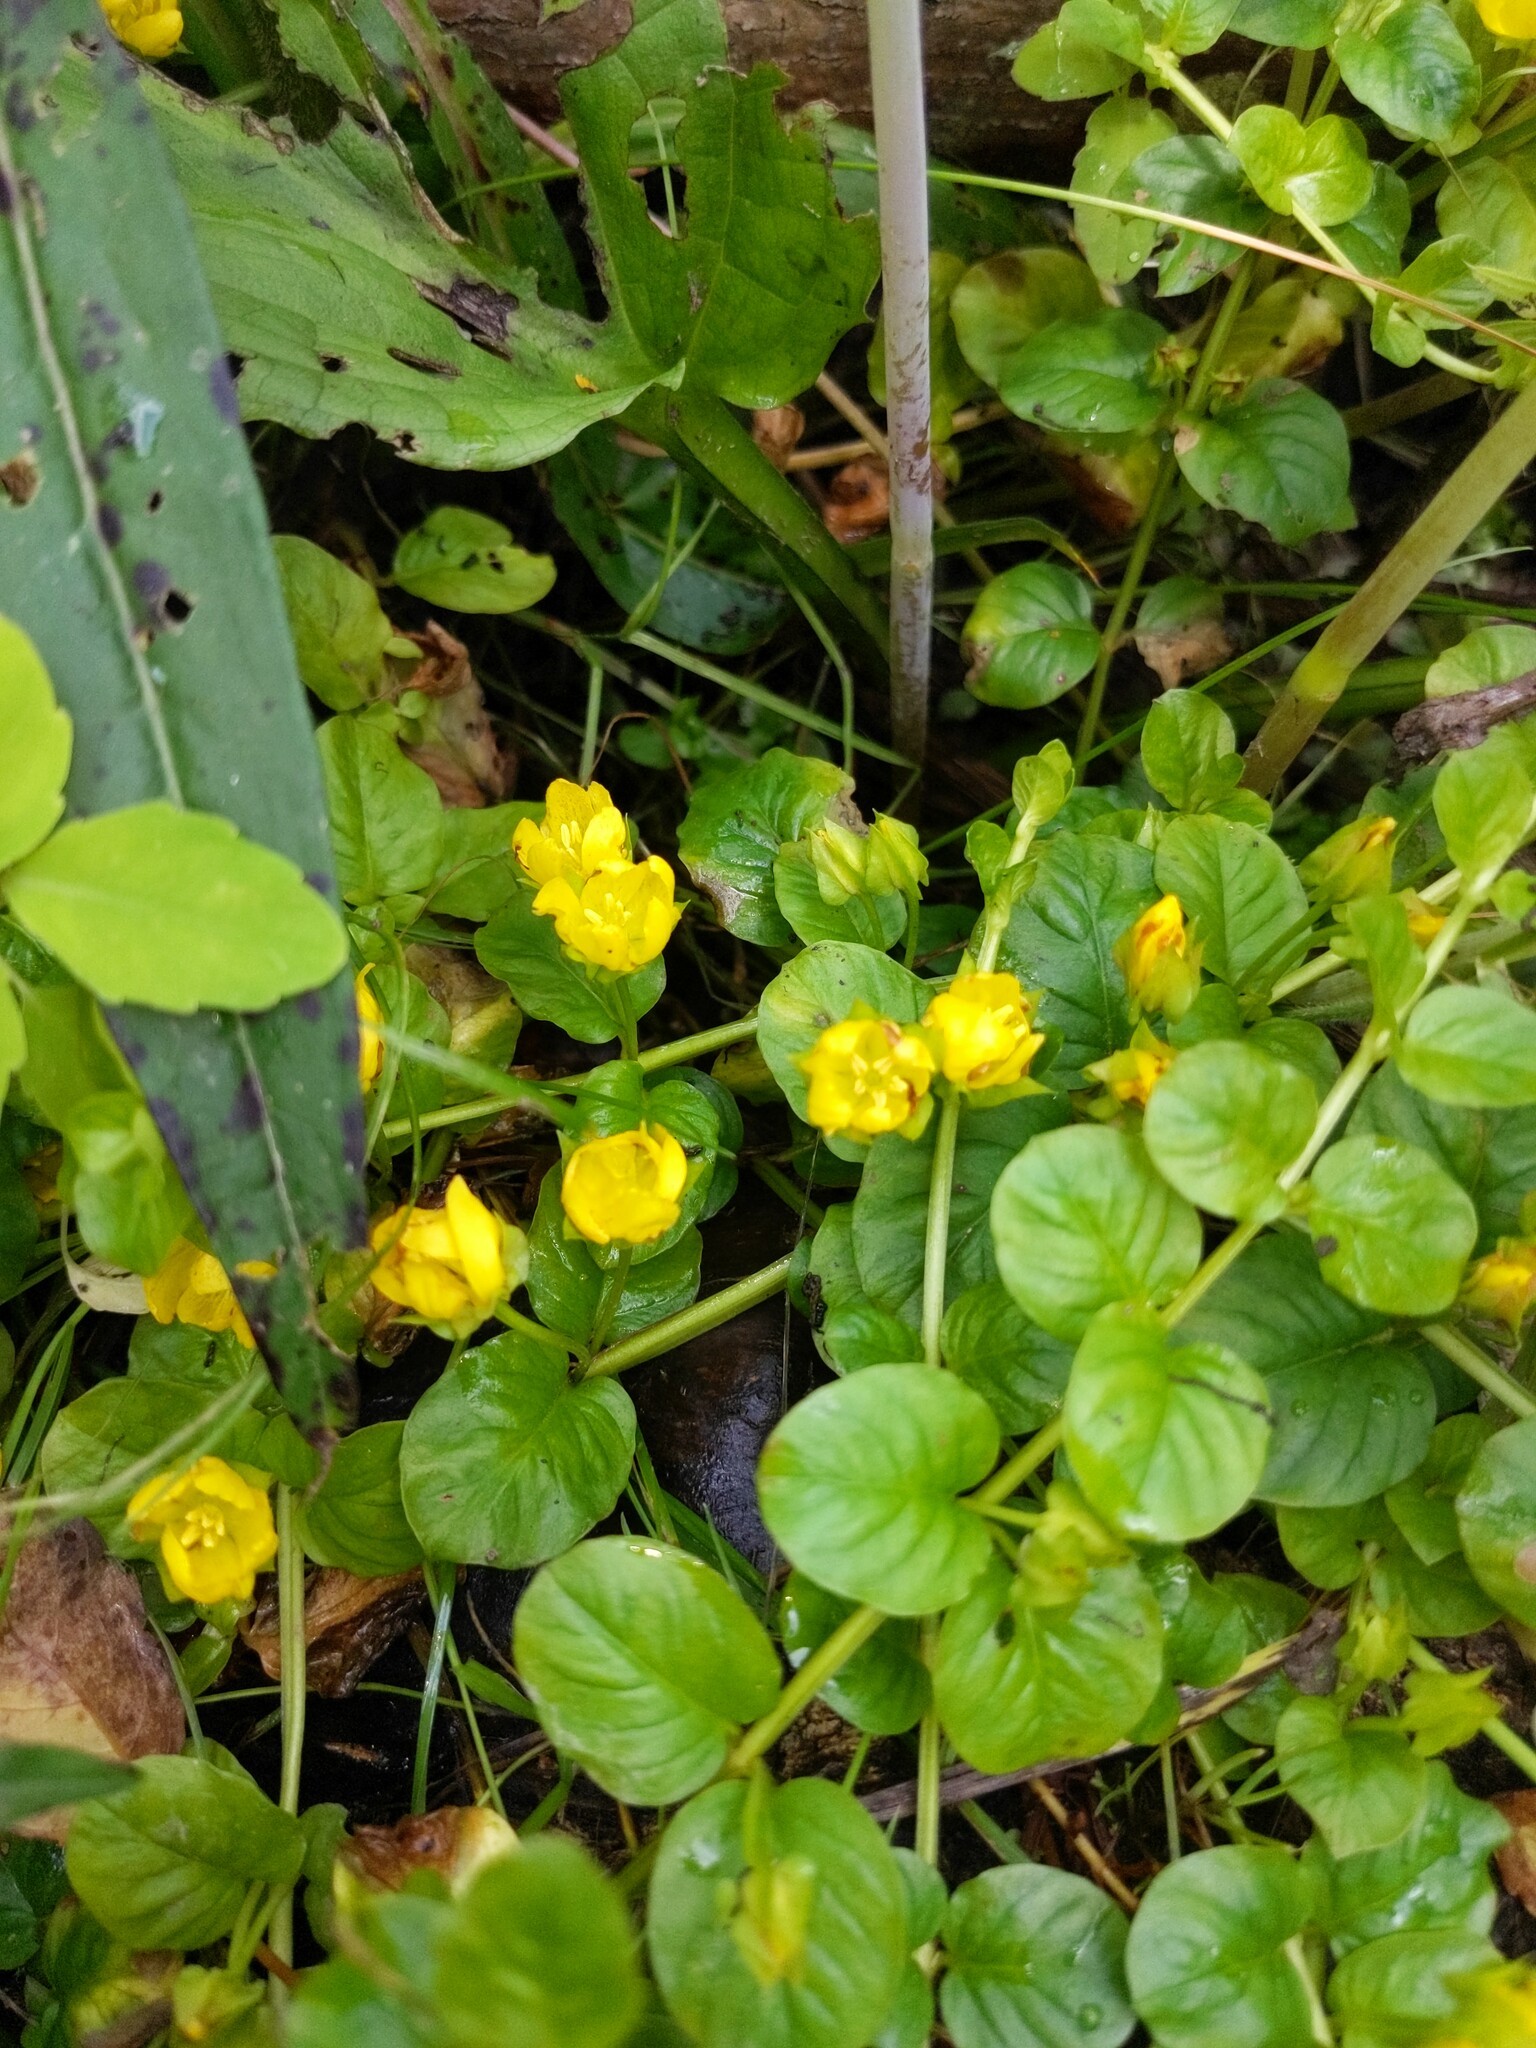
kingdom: Plantae
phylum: Tracheophyta
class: Magnoliopsida
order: Ericales
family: Primulaceae
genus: Lysimachia
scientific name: Lysimachia nummularia
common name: Moneywort
